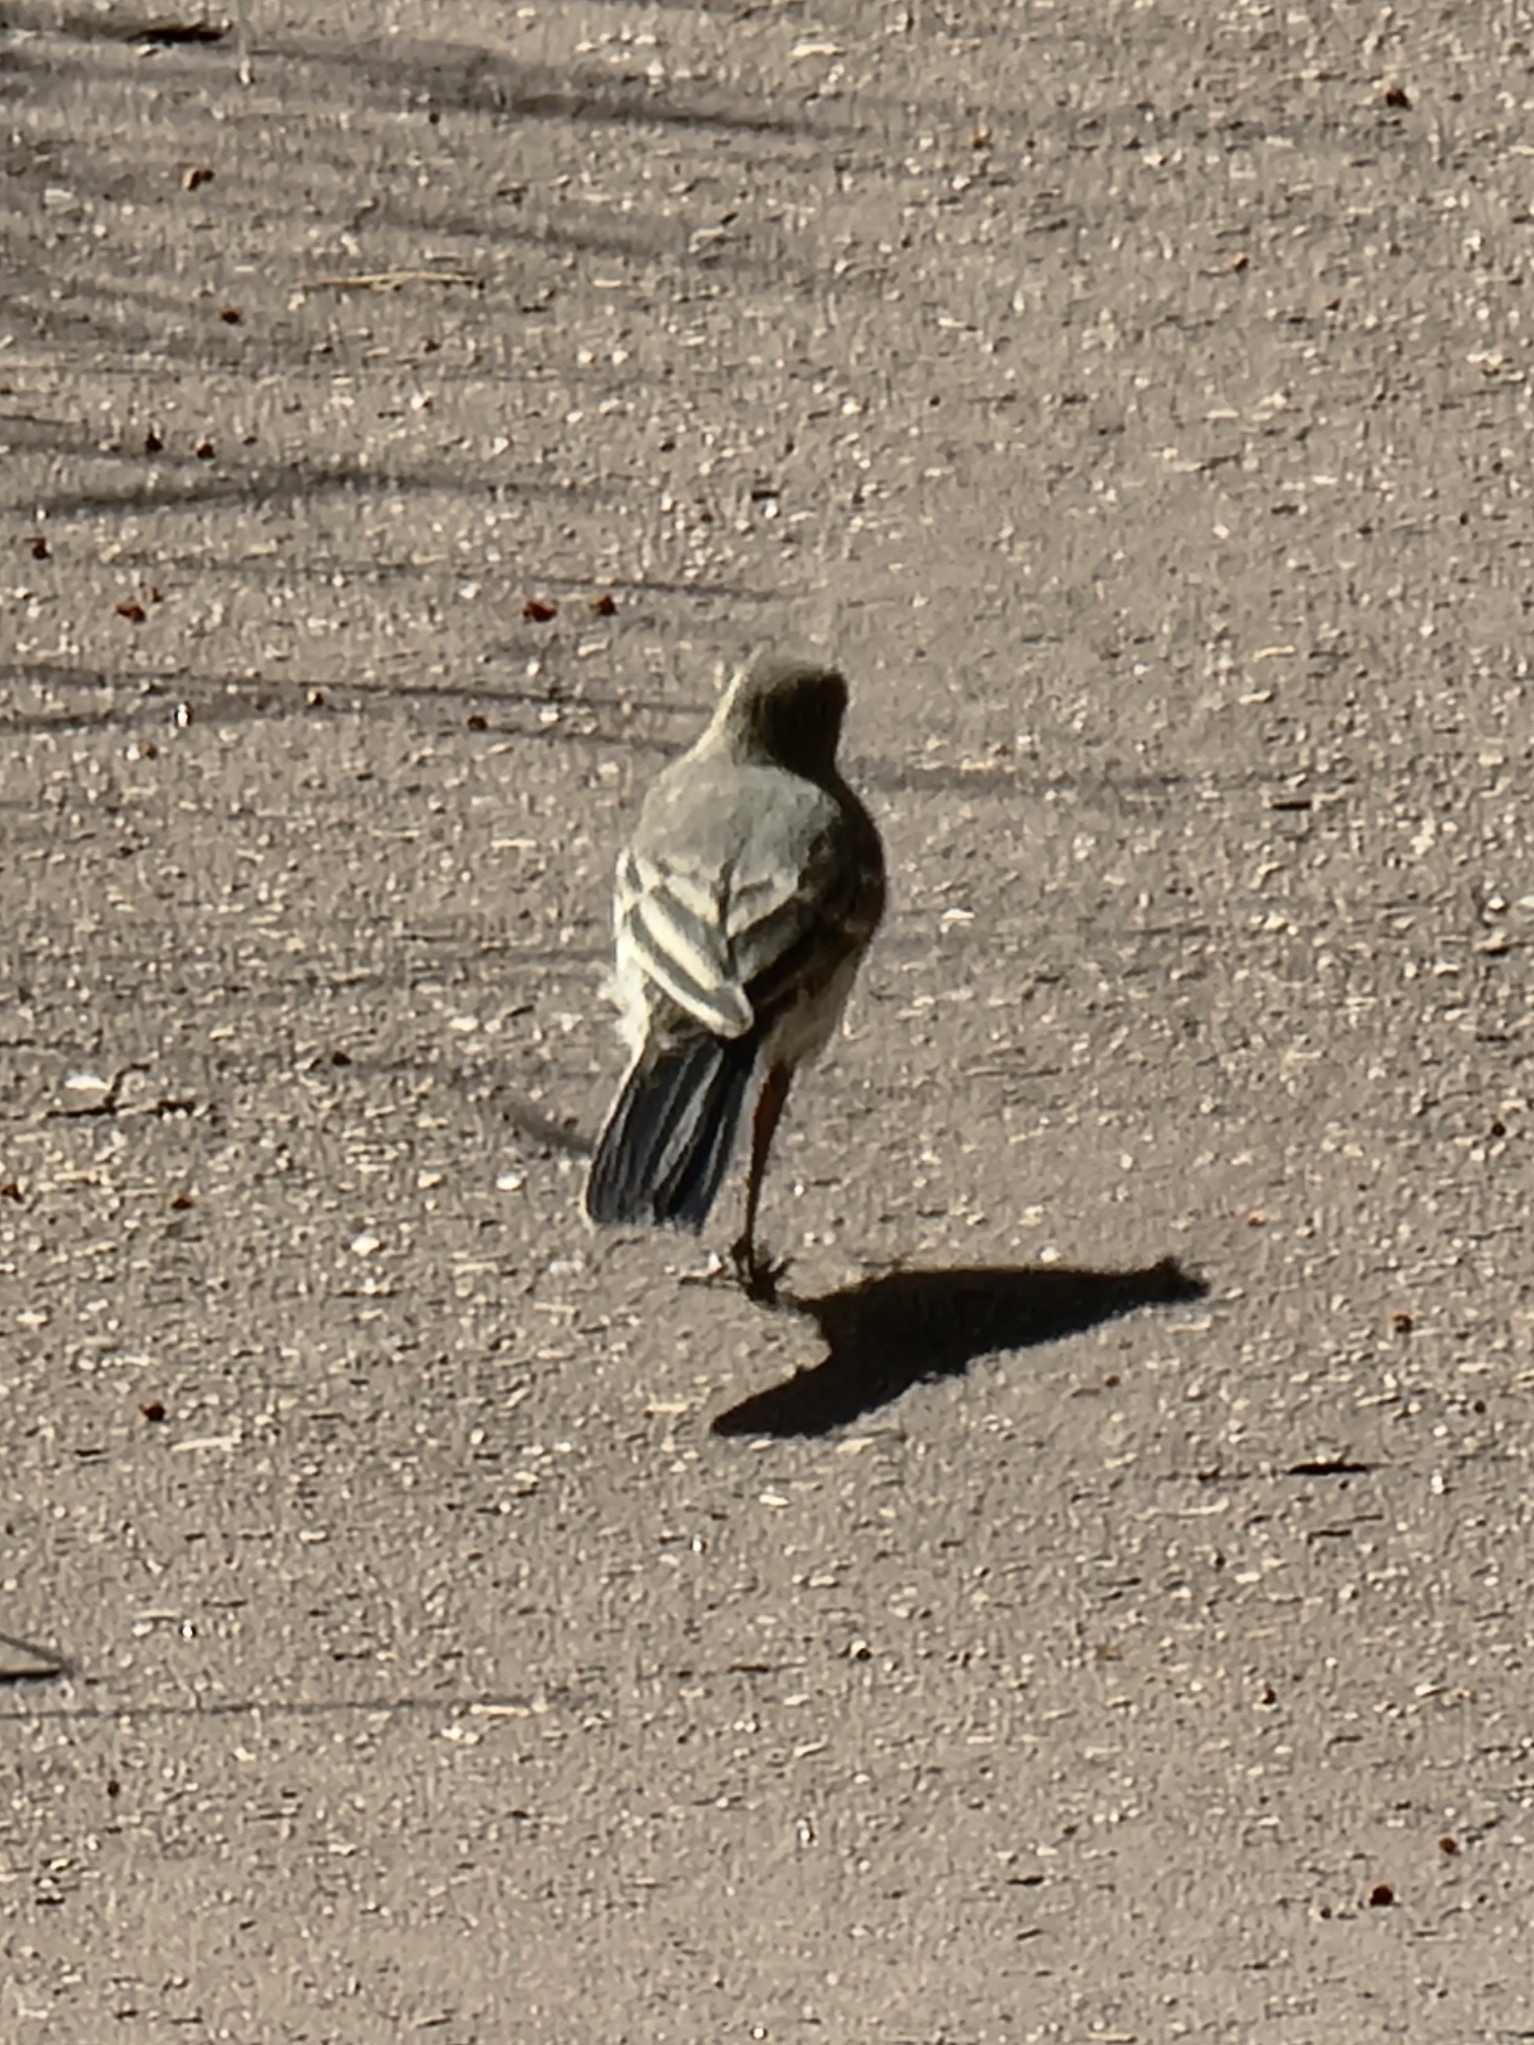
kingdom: Animalia
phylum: Chordata
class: Aves
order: Passeriformes
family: Motacillidae
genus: Motacilla
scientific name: Motacilla alba
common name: White wagtail
